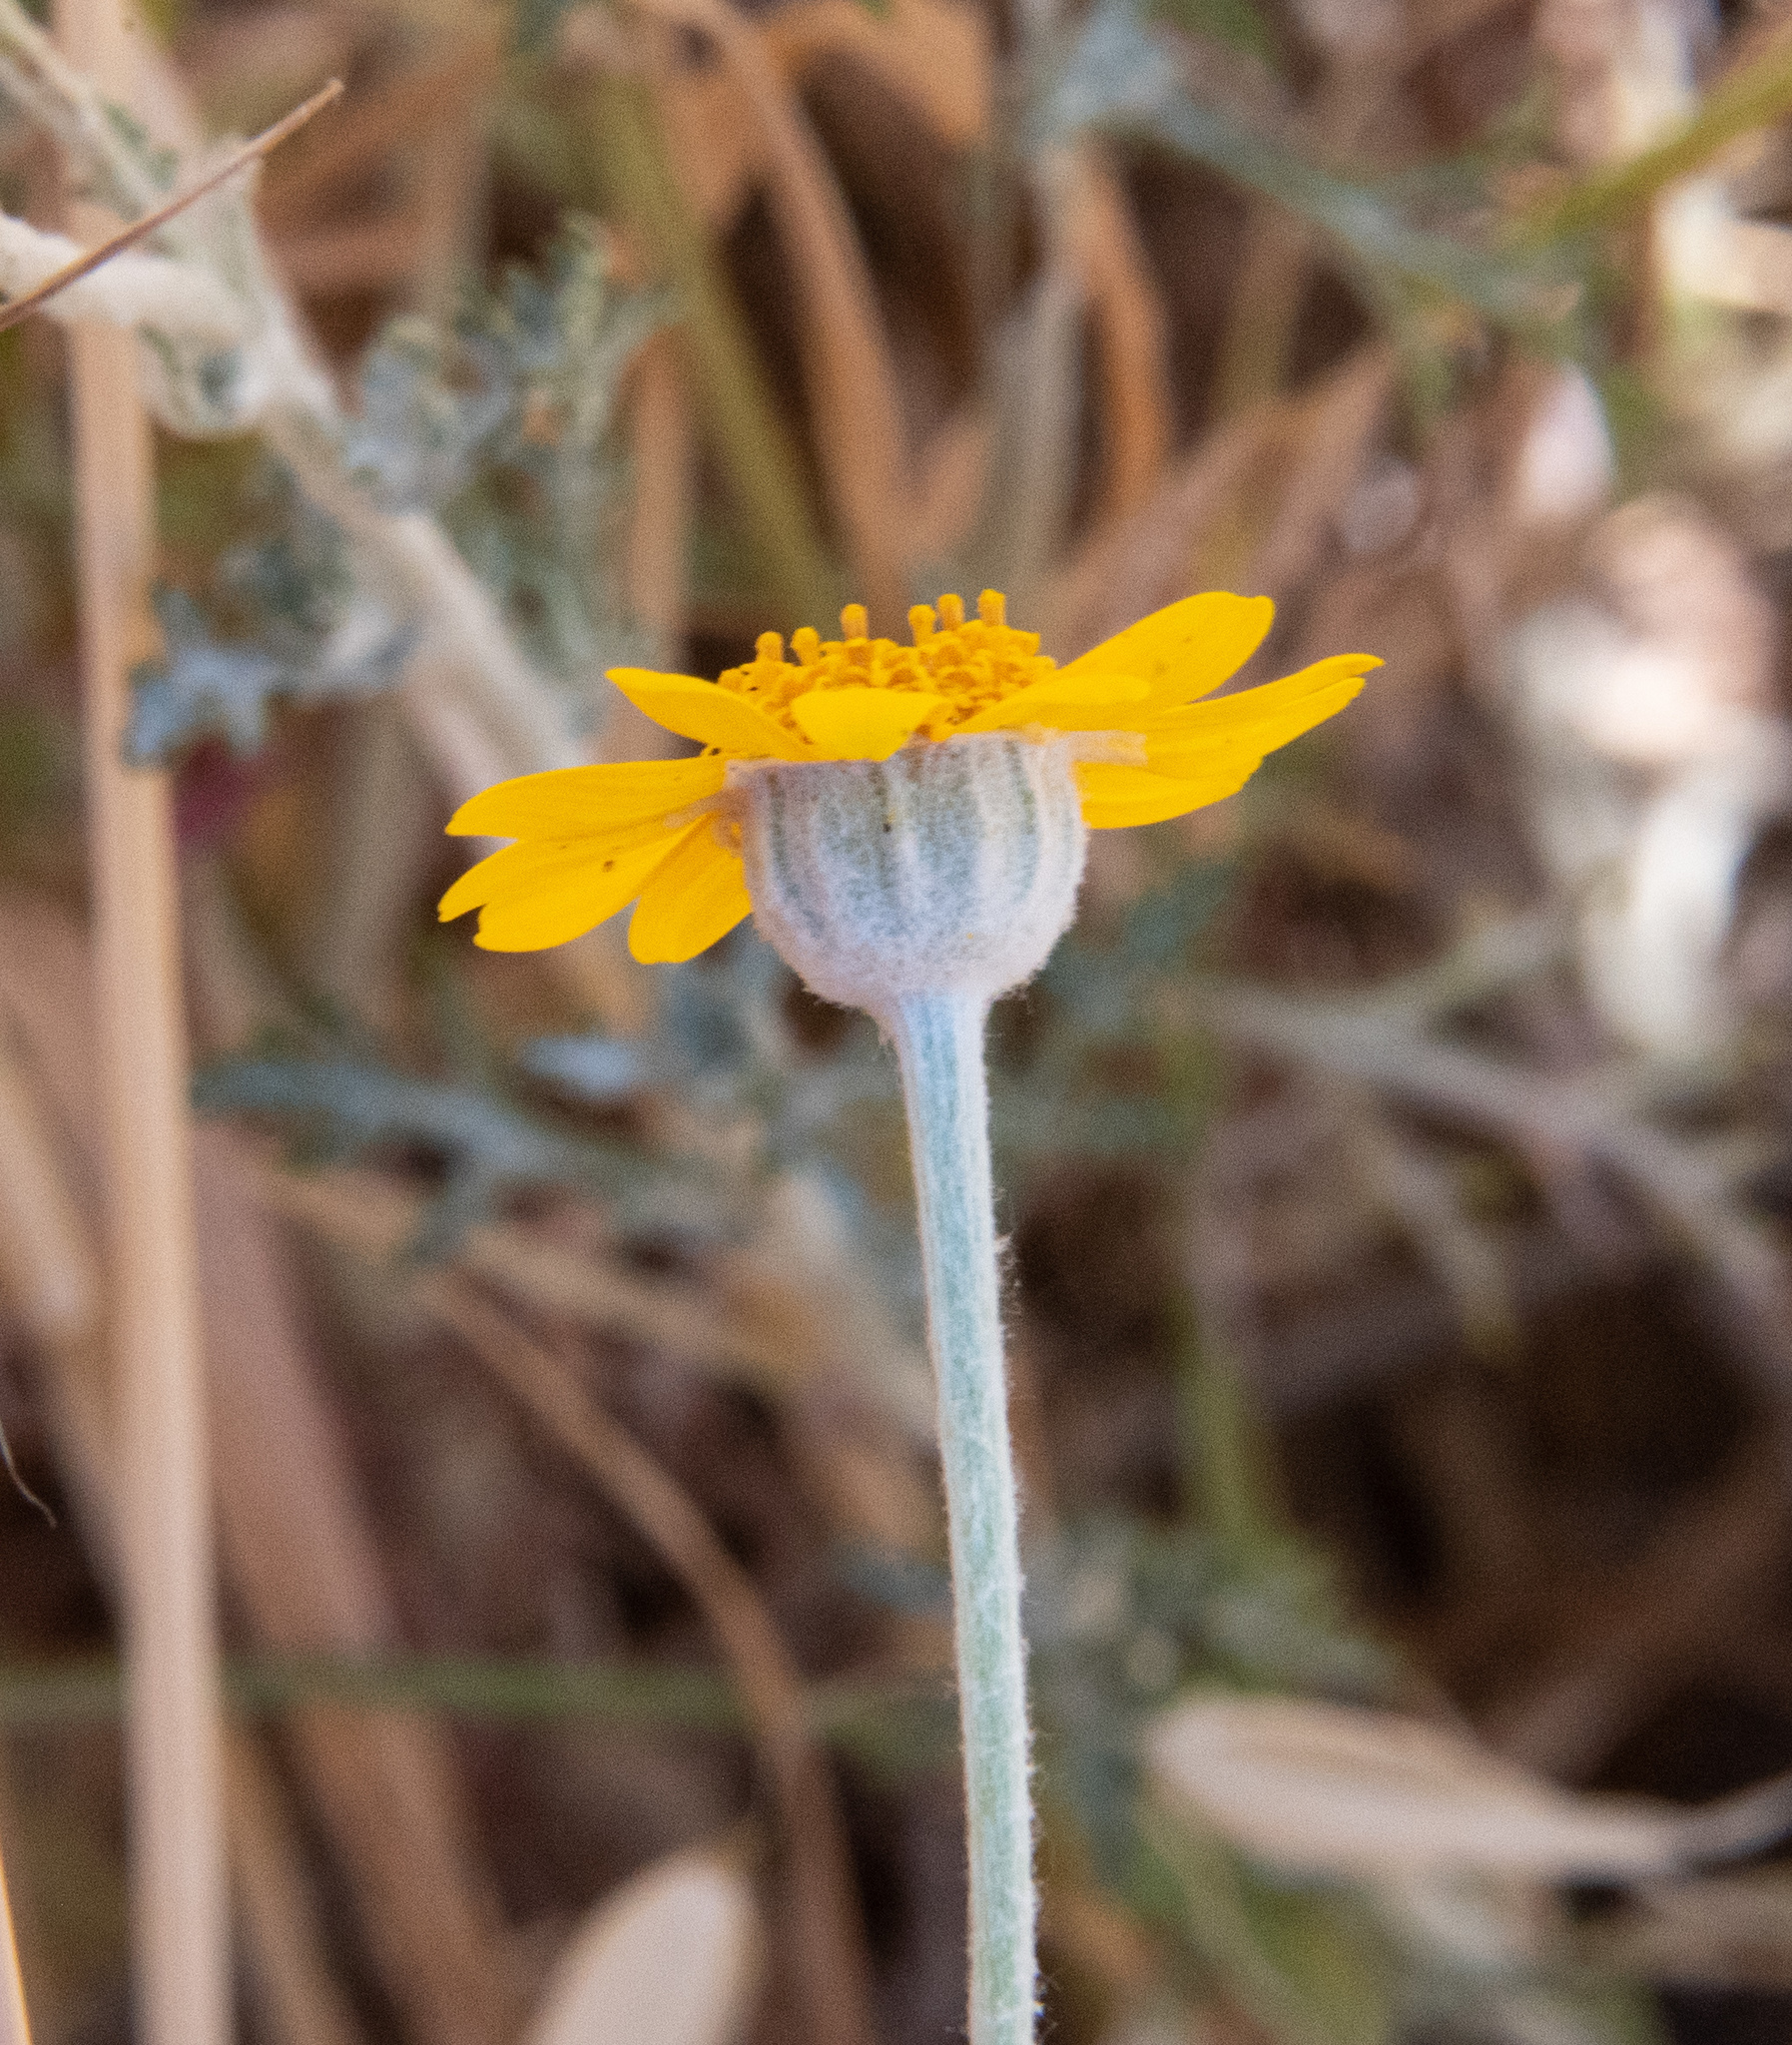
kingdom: Plantae
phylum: Tracheophyta
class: Magnoliopsida
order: Asterales
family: Asteraceae
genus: Eriophyllum
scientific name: Eriophyllum lanatum
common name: Common woolly-sunflower
